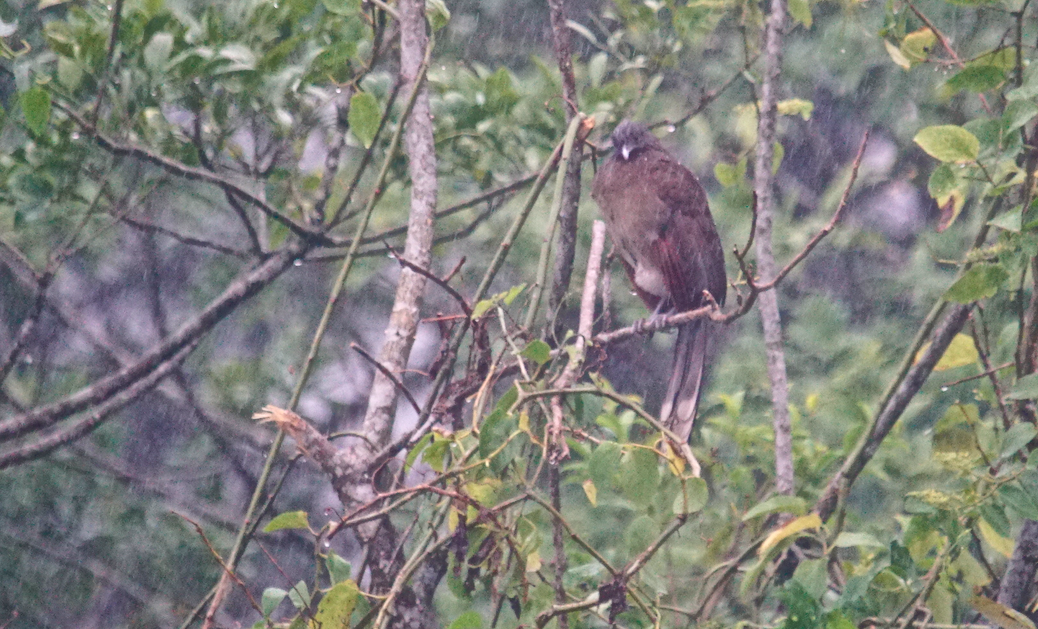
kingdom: Animalia
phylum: Chordata
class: Aves
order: Galliformes
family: Cracidae
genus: Ortalis
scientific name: Ortalis cinereiceps
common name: Grey-headed chachalaca
